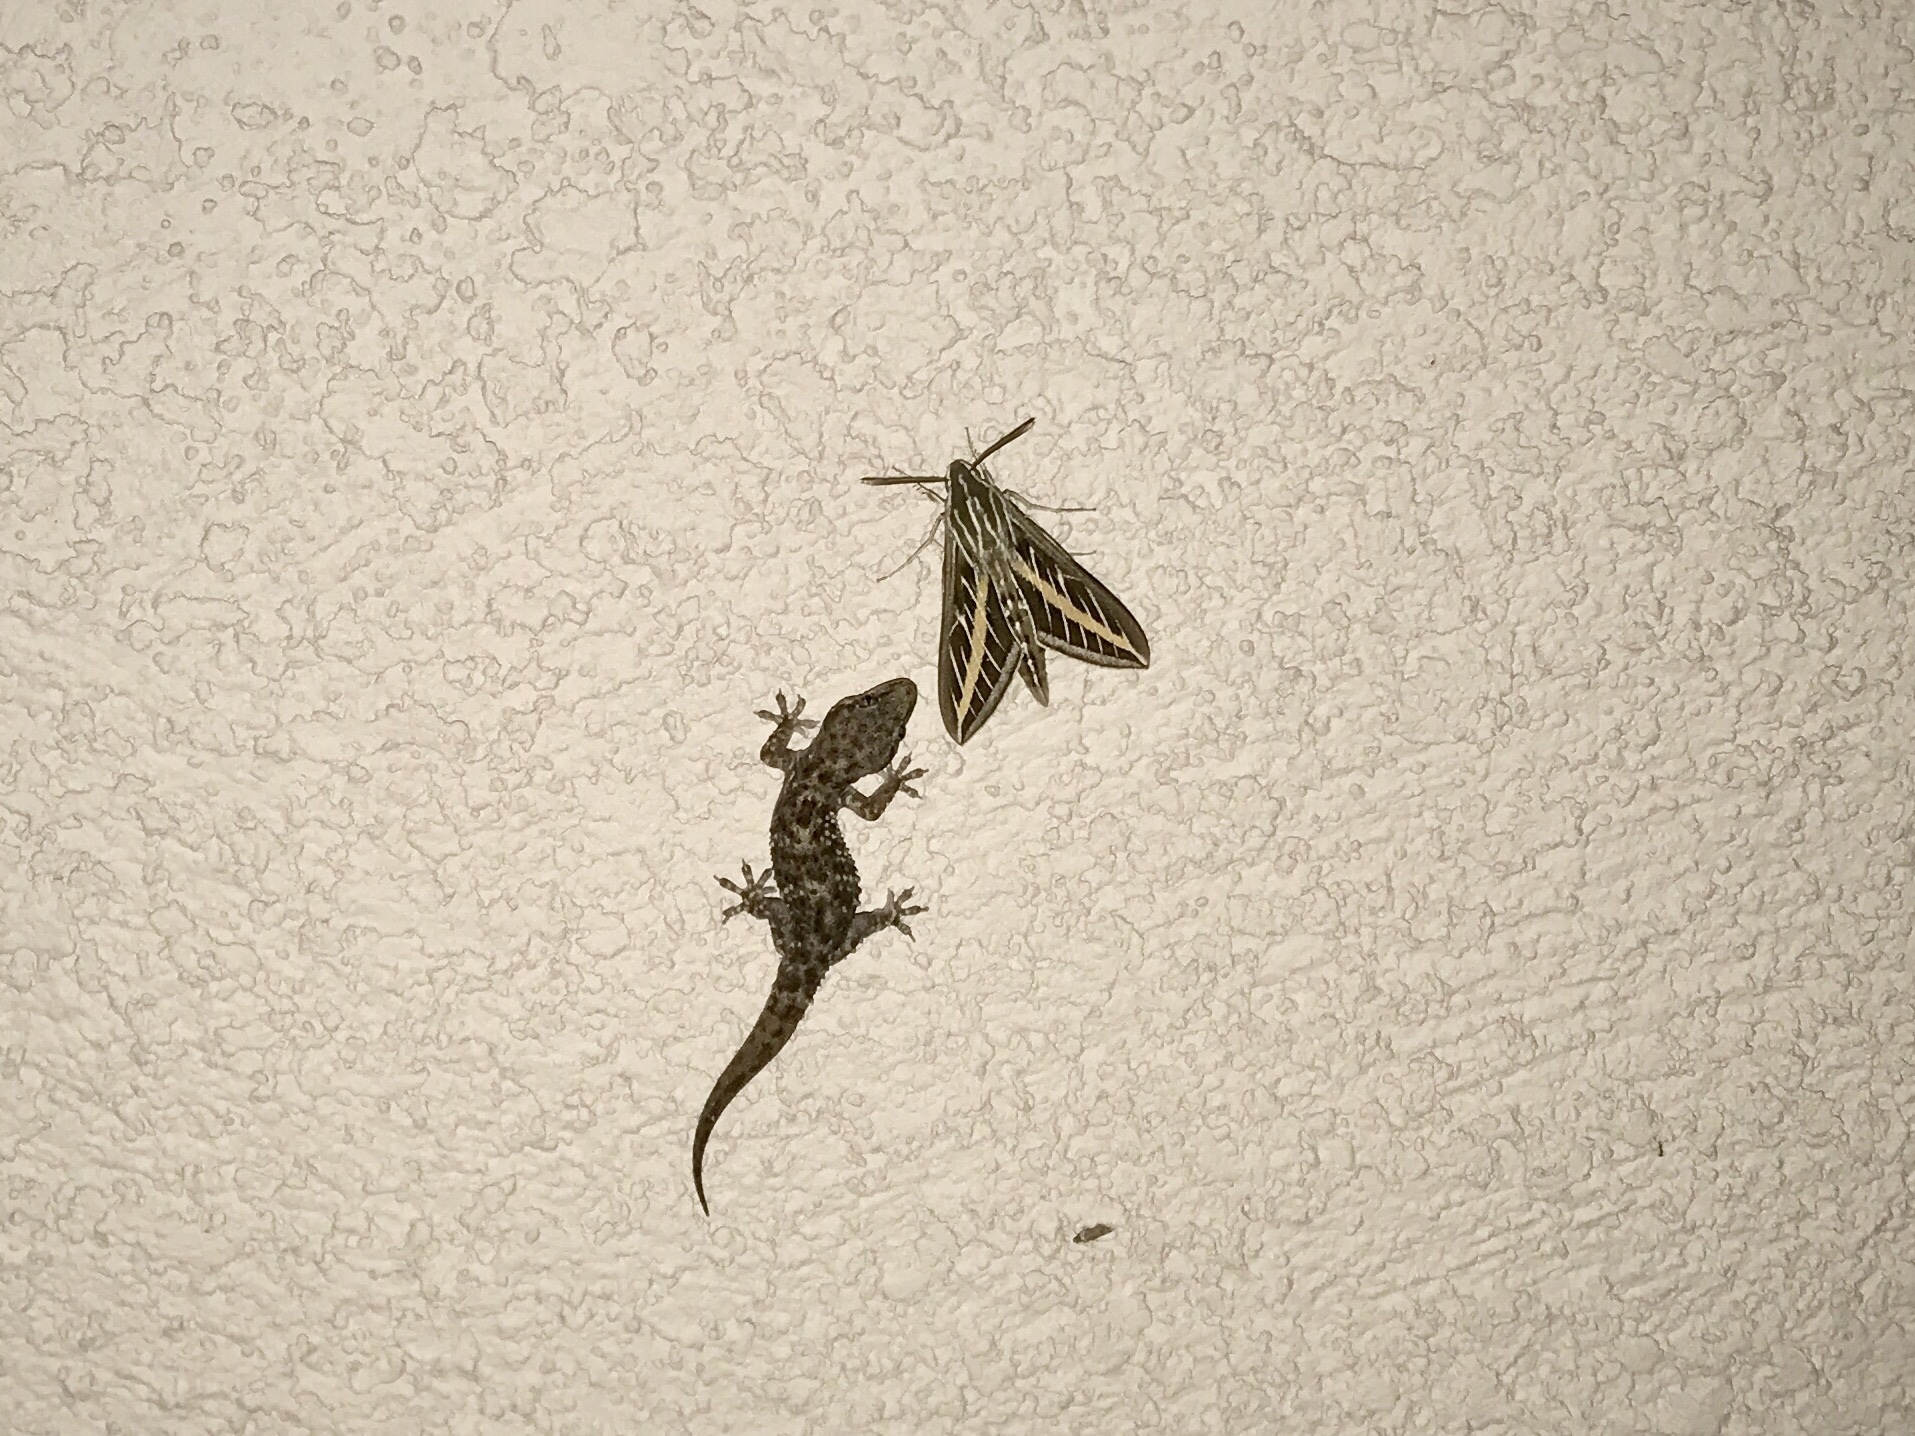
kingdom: Animalia
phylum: Arthropoda
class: Insecta
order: Lepidoptera
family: Sphingidae
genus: Hyles
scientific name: Hyles lineata
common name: White-lined sphinx
